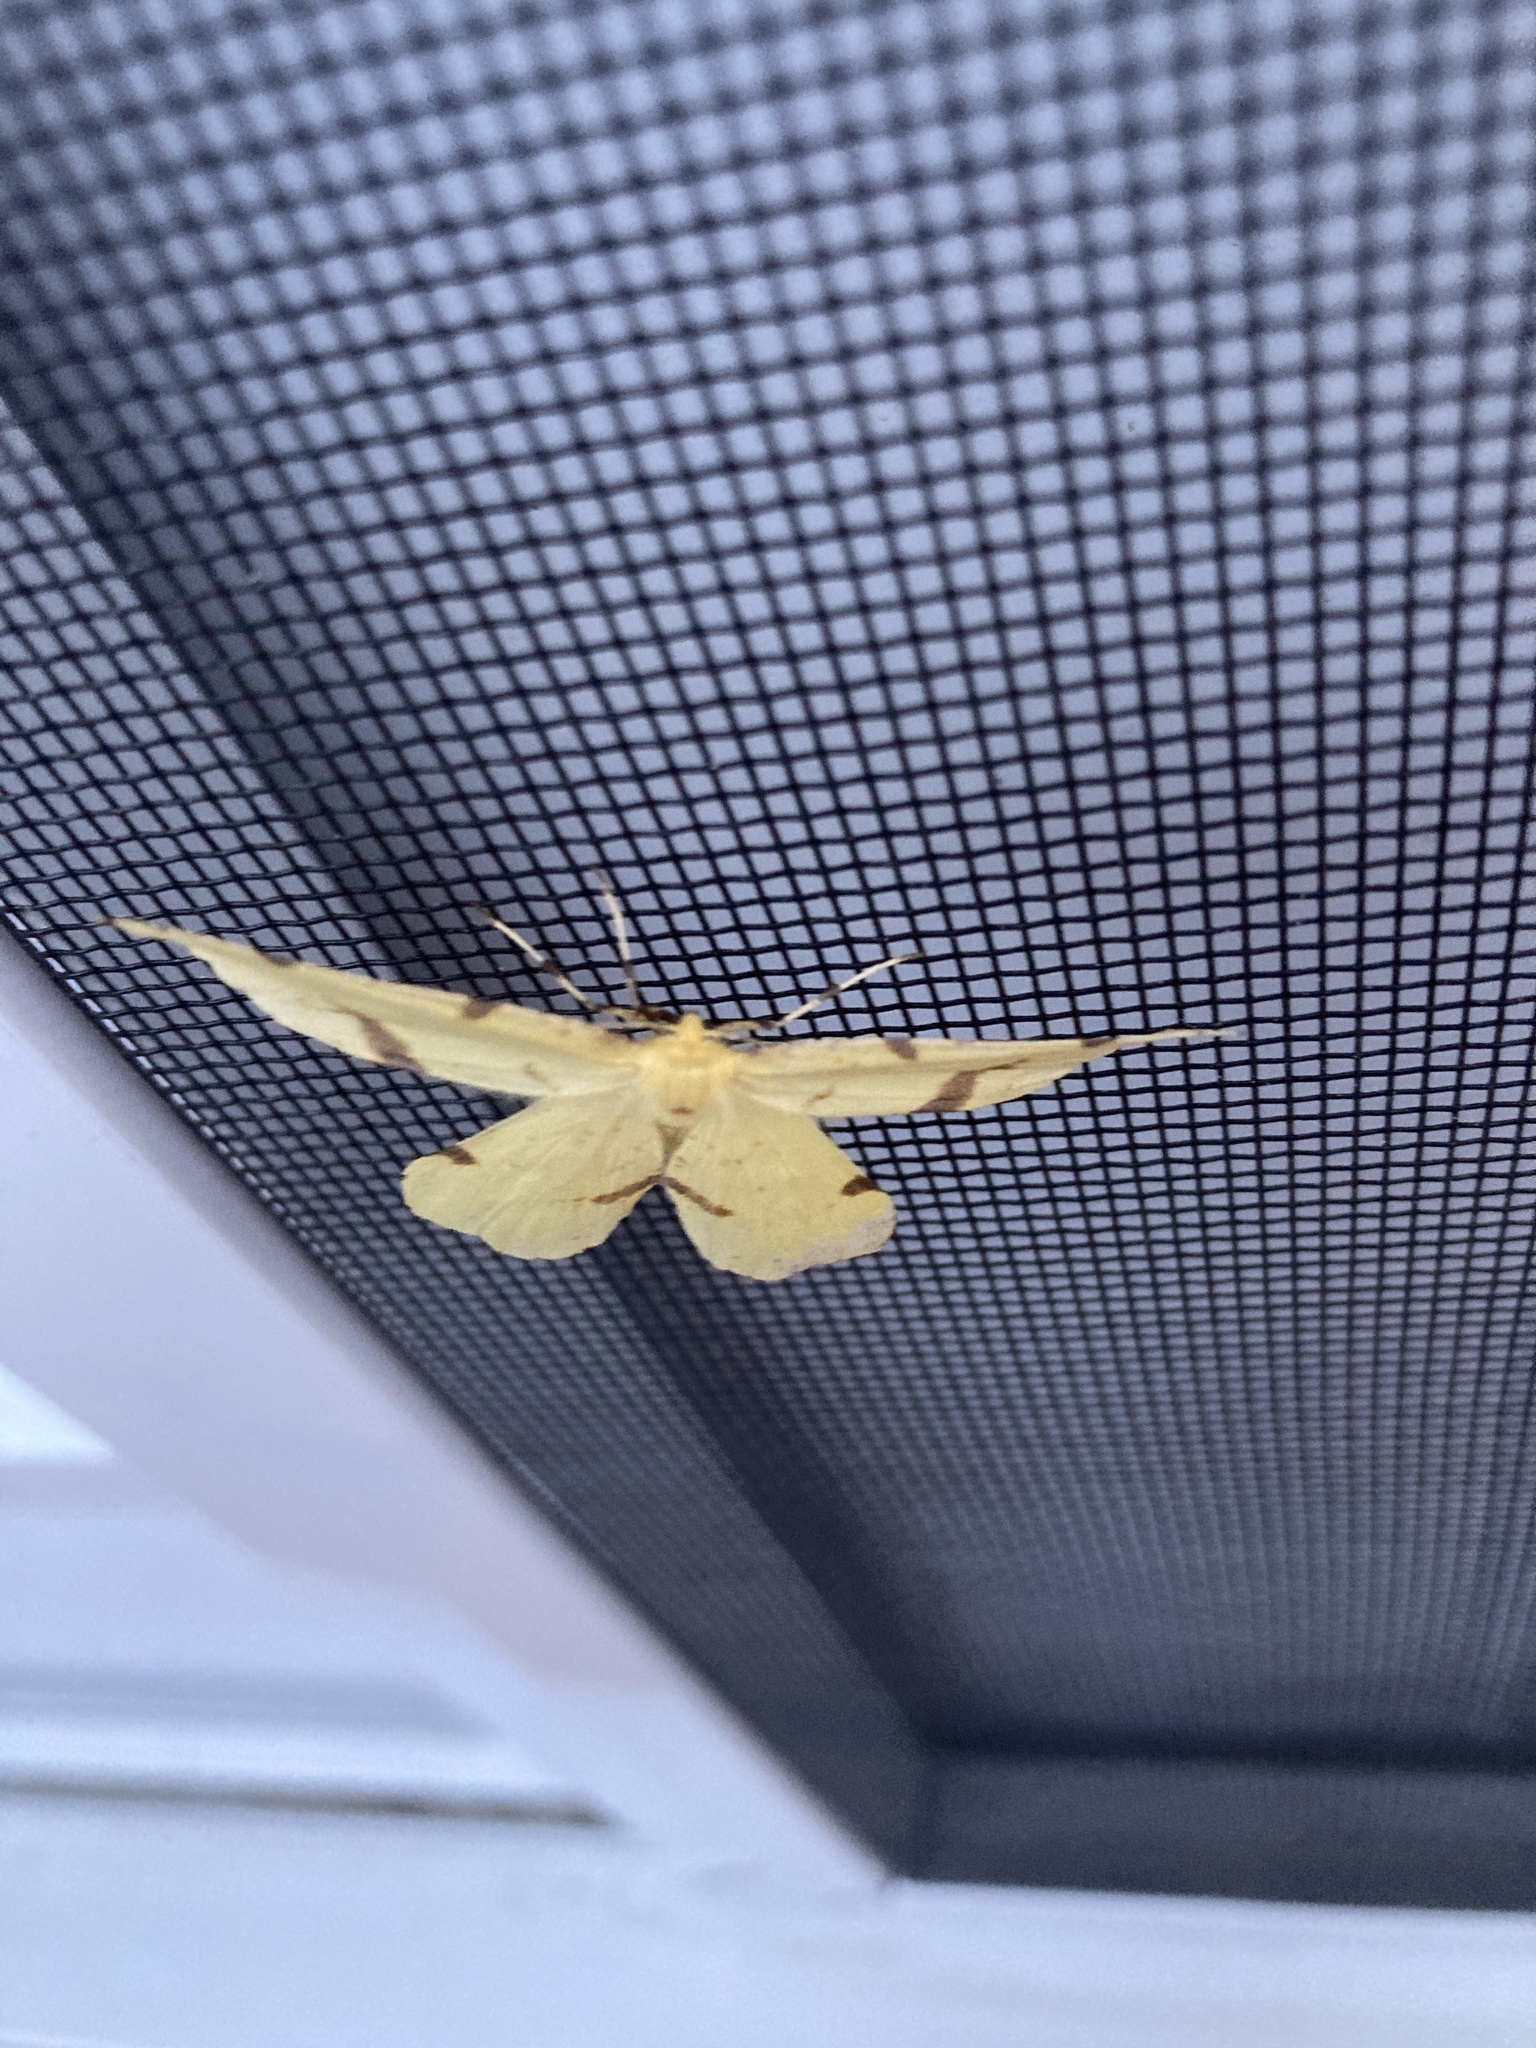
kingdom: Animalia
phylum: Arthropoda
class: Insecta
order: Lepidoptera
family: Geometridae
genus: Xanthotype
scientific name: Xanthotype
